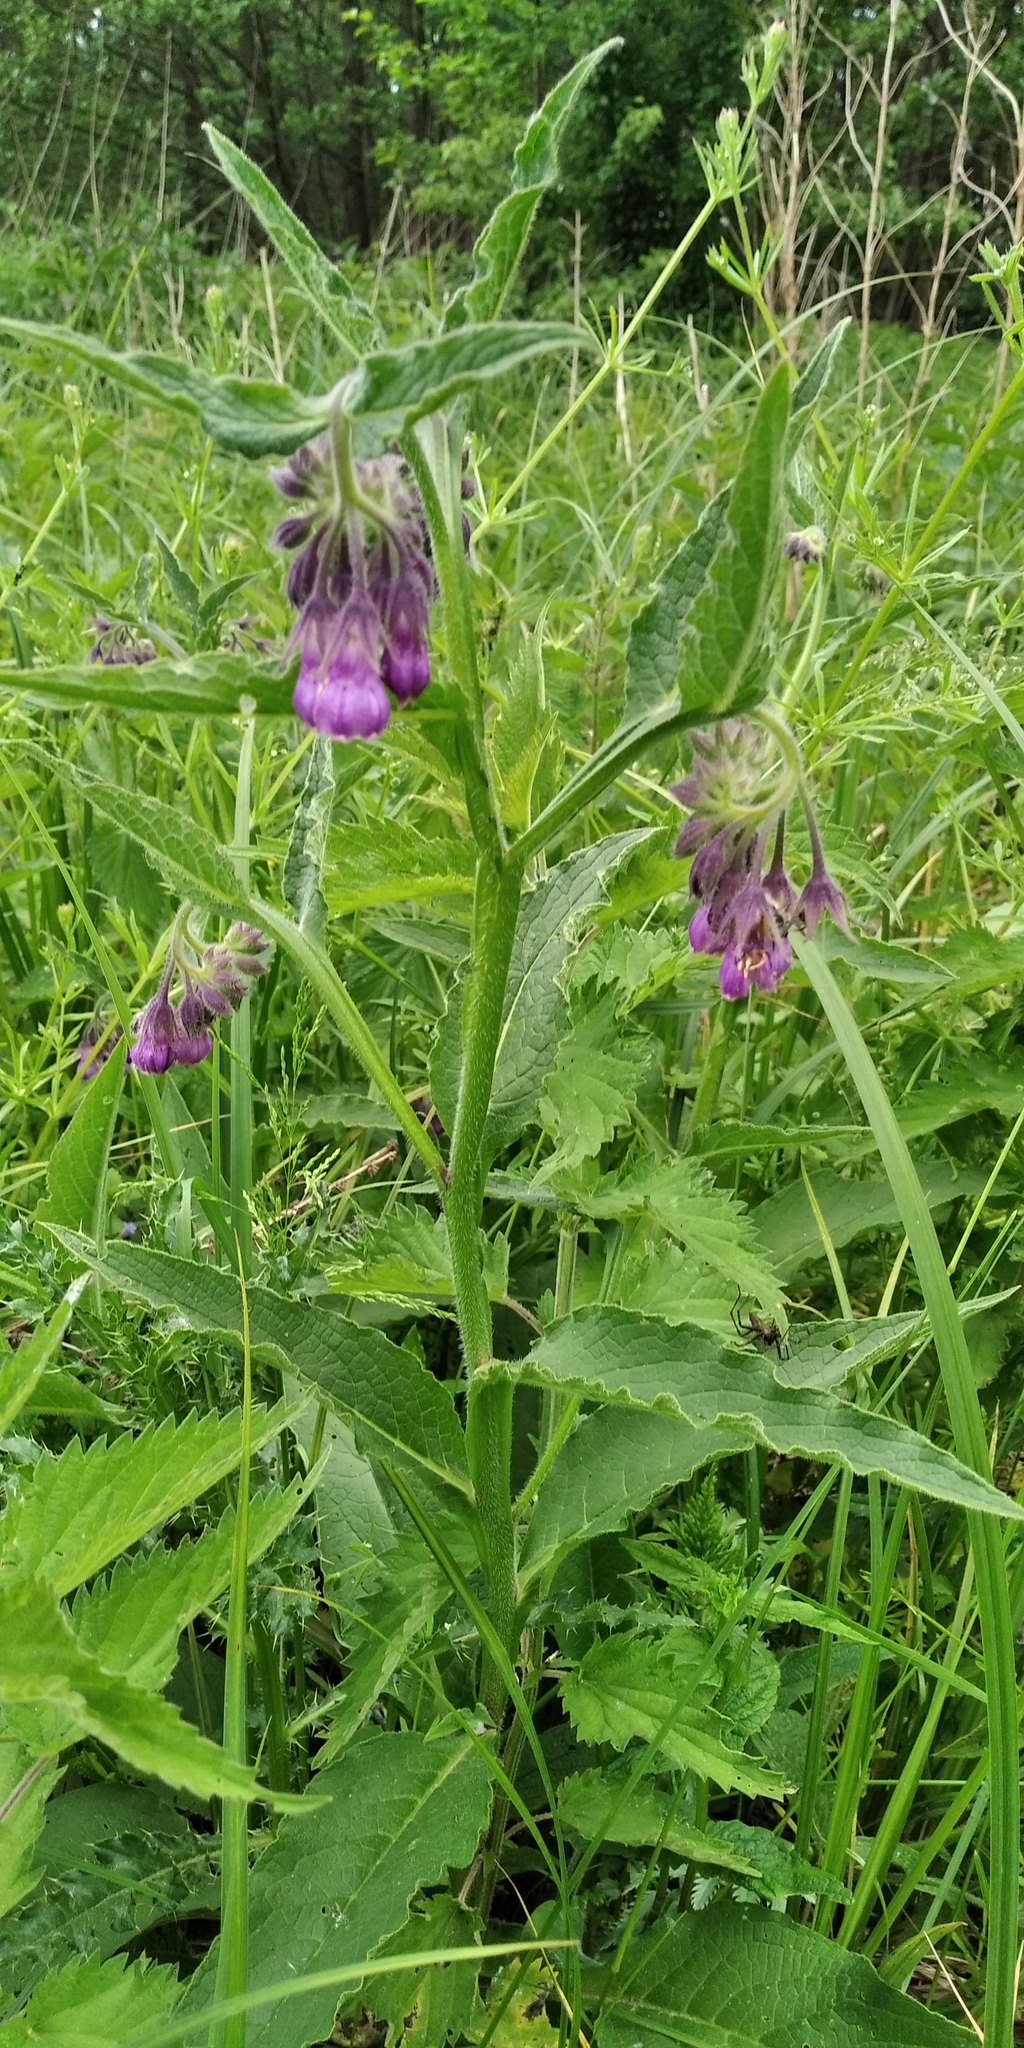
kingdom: Plantae
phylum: Tracheophyta
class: Magnoliopsida
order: Boraginales
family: Boraginaceae
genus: Symphytum
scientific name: Symphytum officinale
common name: Common comfrey
